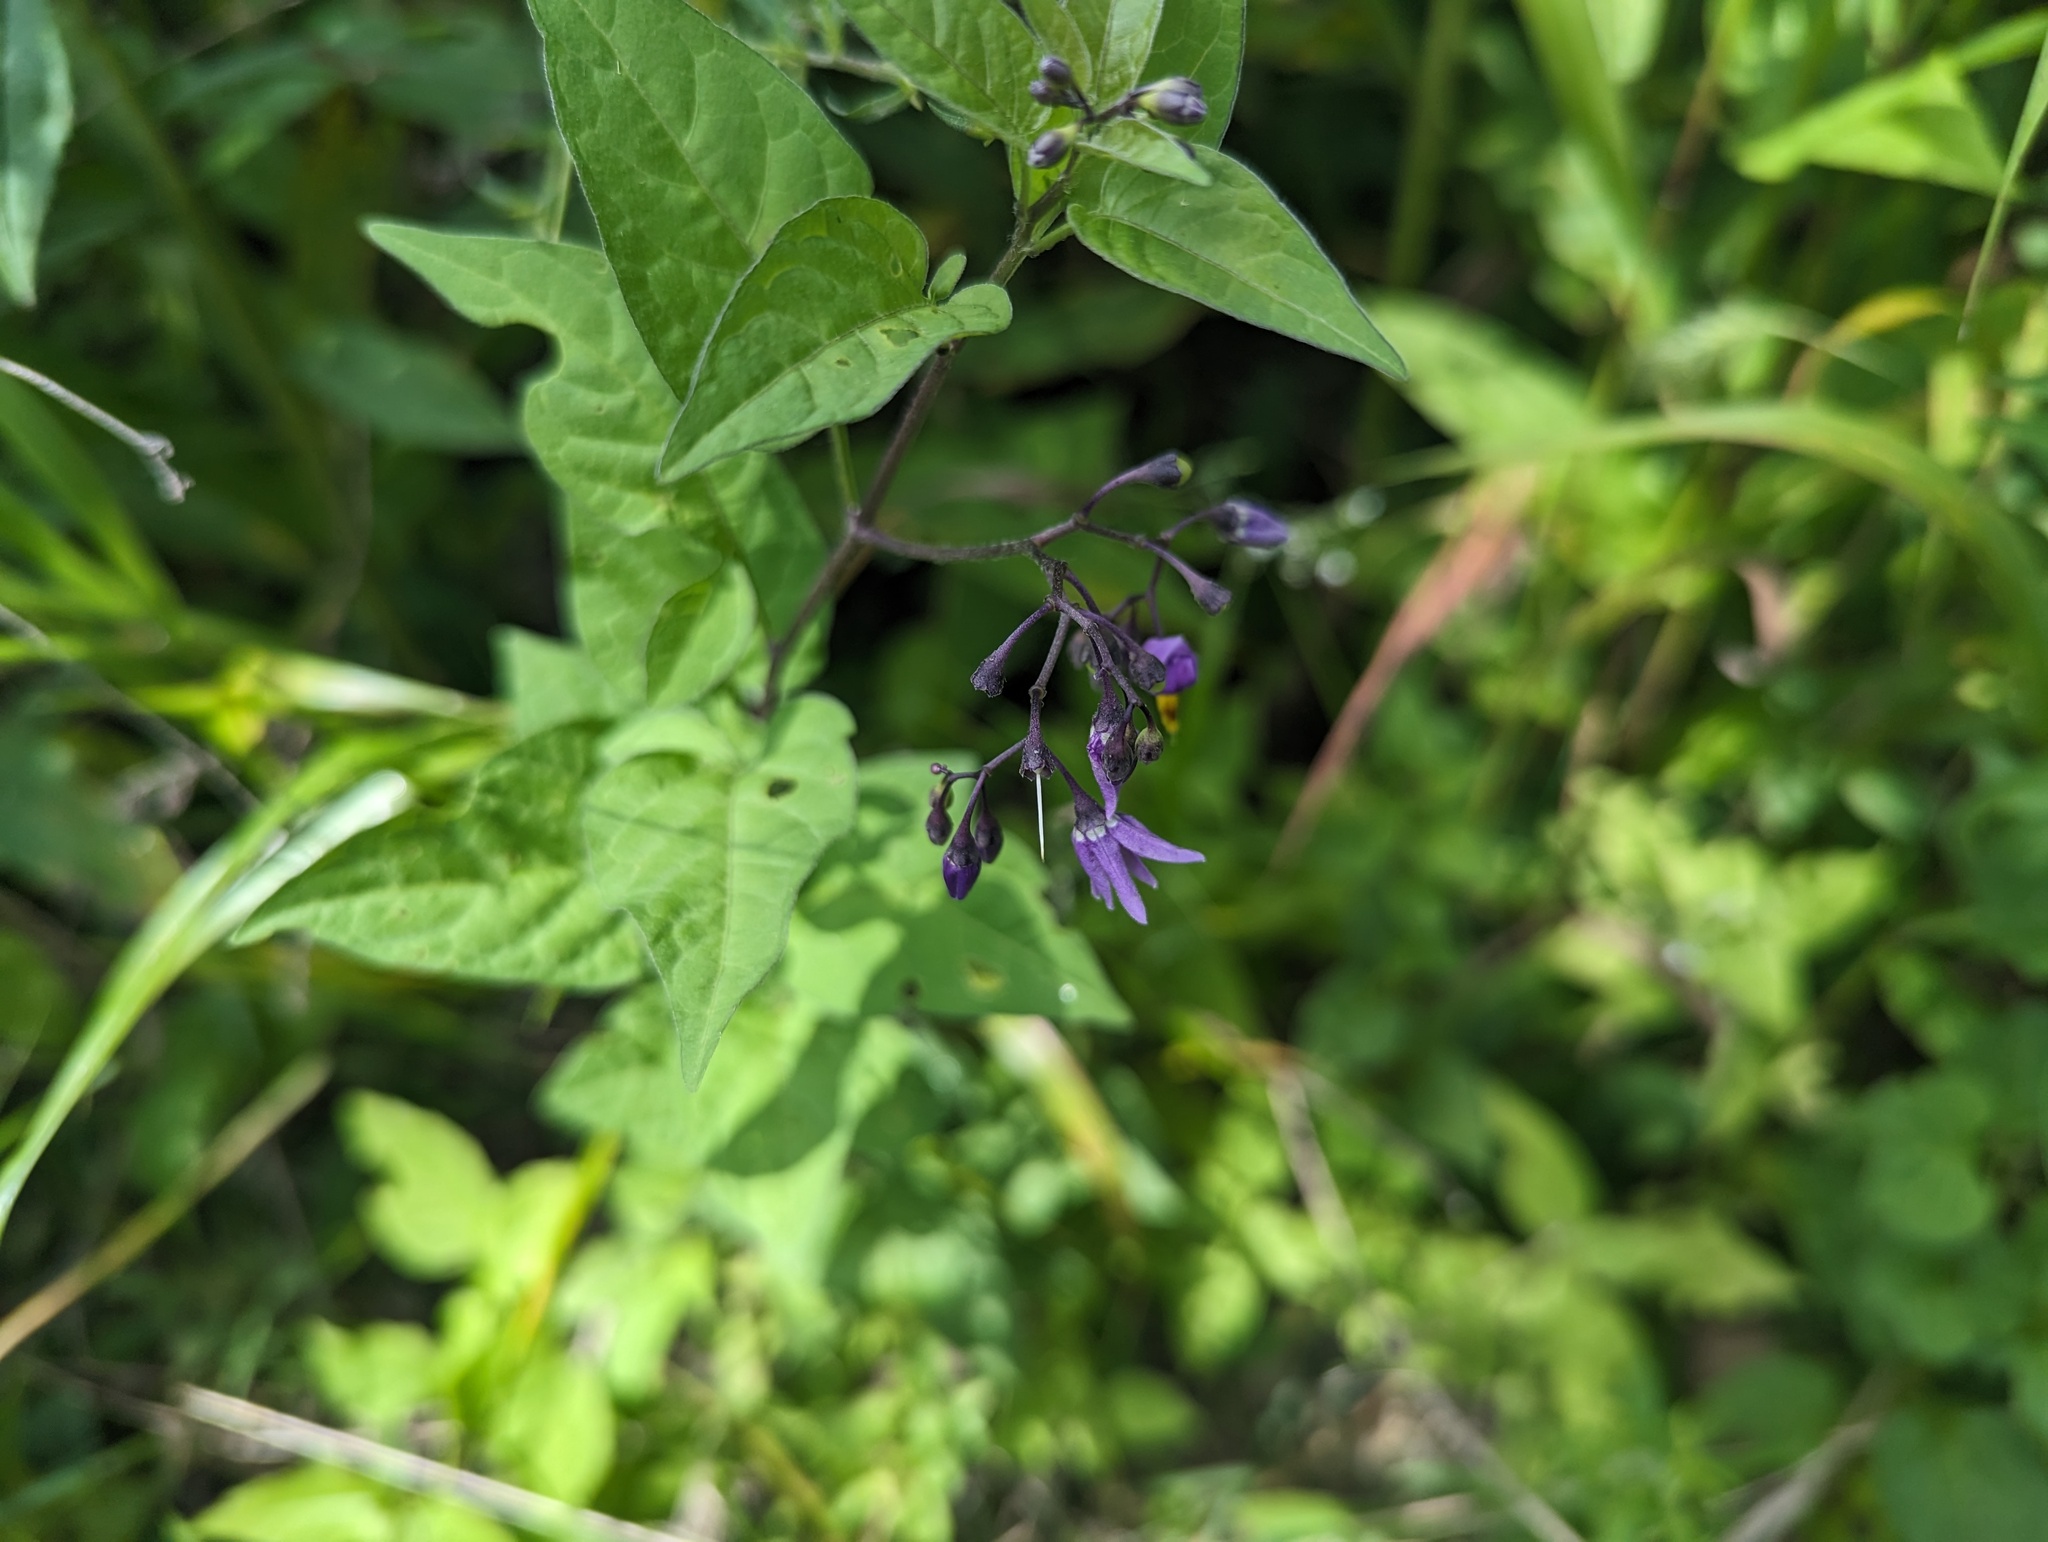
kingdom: Plantae
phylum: Tracheophyta
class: Magnoliopsida
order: Solanales
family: Solanaceae
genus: Solanum
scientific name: Solanum dulcamara
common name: Climbing nightshade
